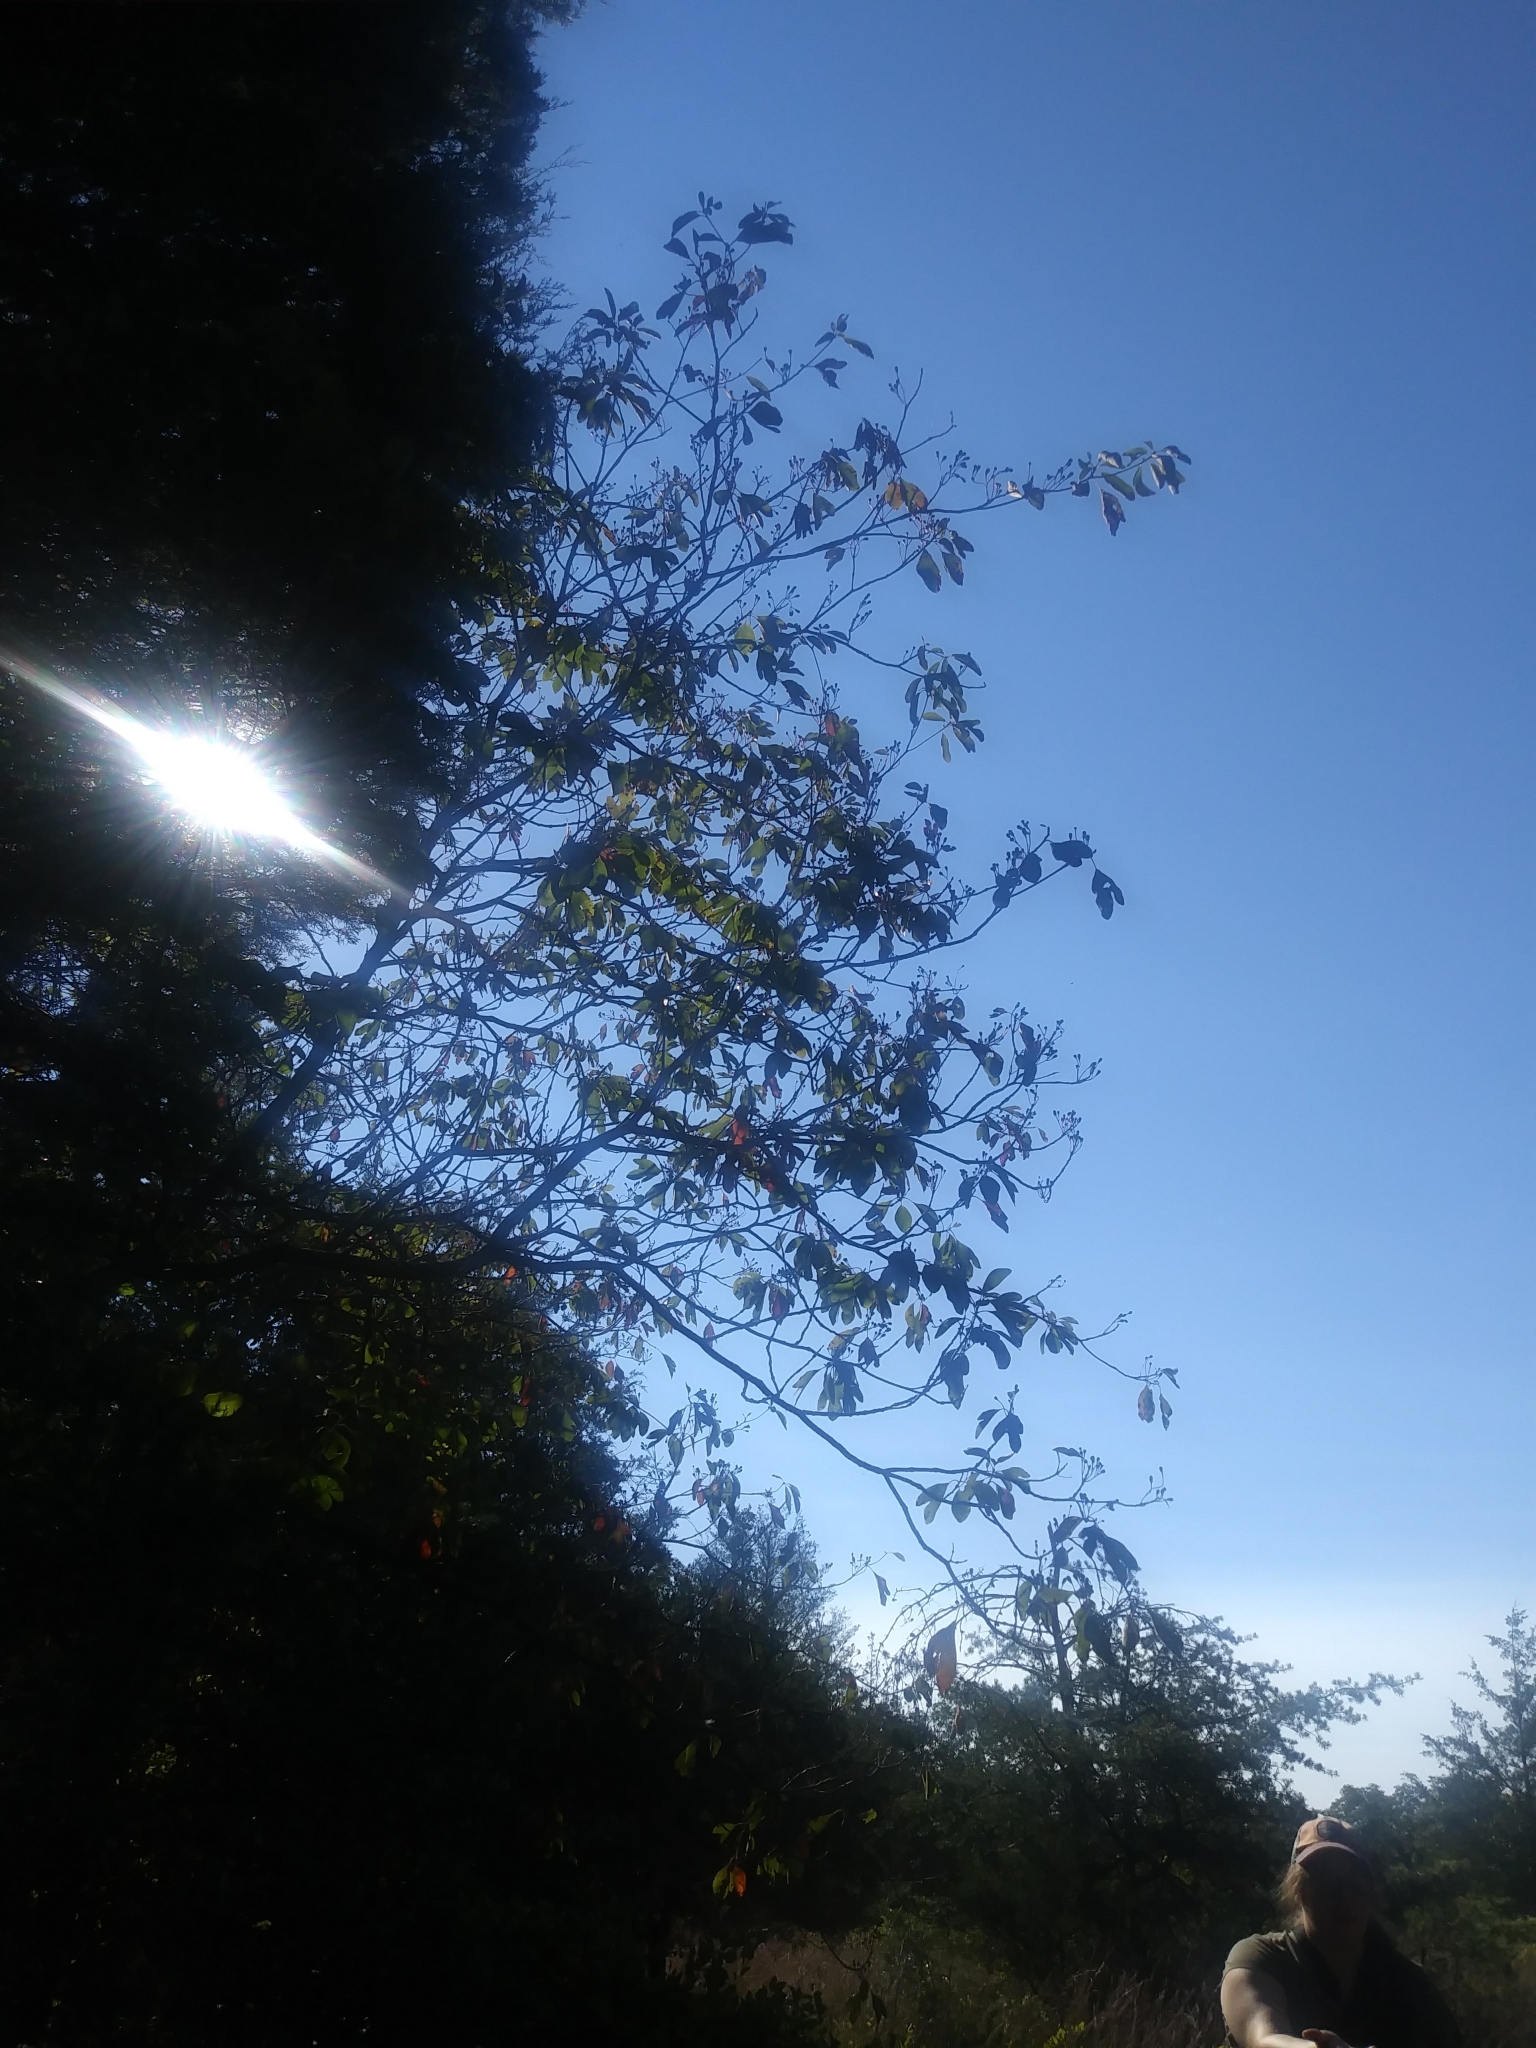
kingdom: Plantae
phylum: Tracheophyta
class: Magnoliopsida
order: Laurales
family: Lauraceae
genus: Sassafras
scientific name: Sassafras albidum
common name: Sassafras
